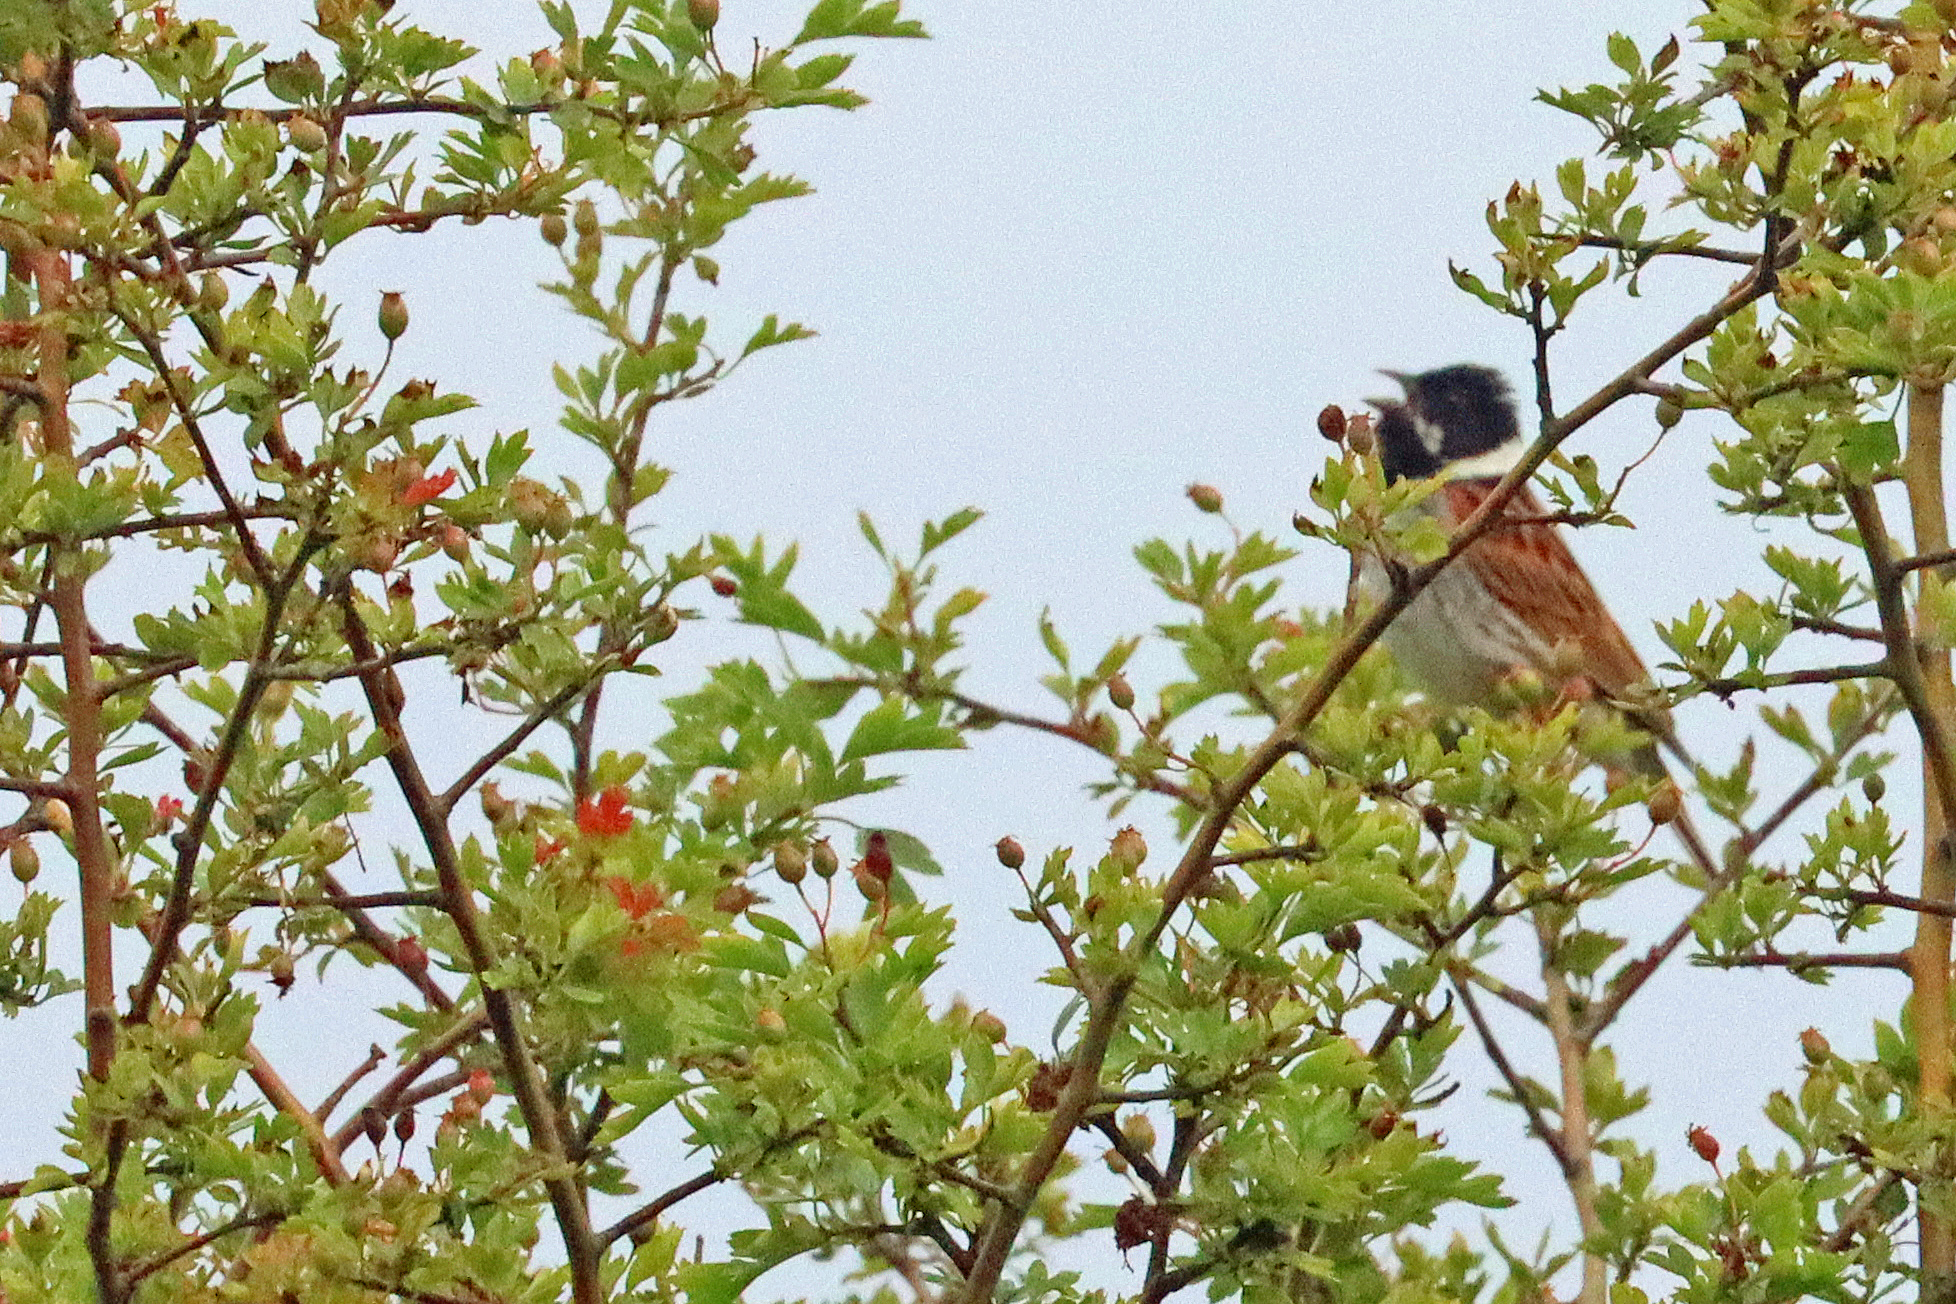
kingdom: Animalia
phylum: Chordata
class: Aves
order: Passeriformes
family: Emberizidae
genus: Emberiza
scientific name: Emberiza schoeniclus
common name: Reed bunting
